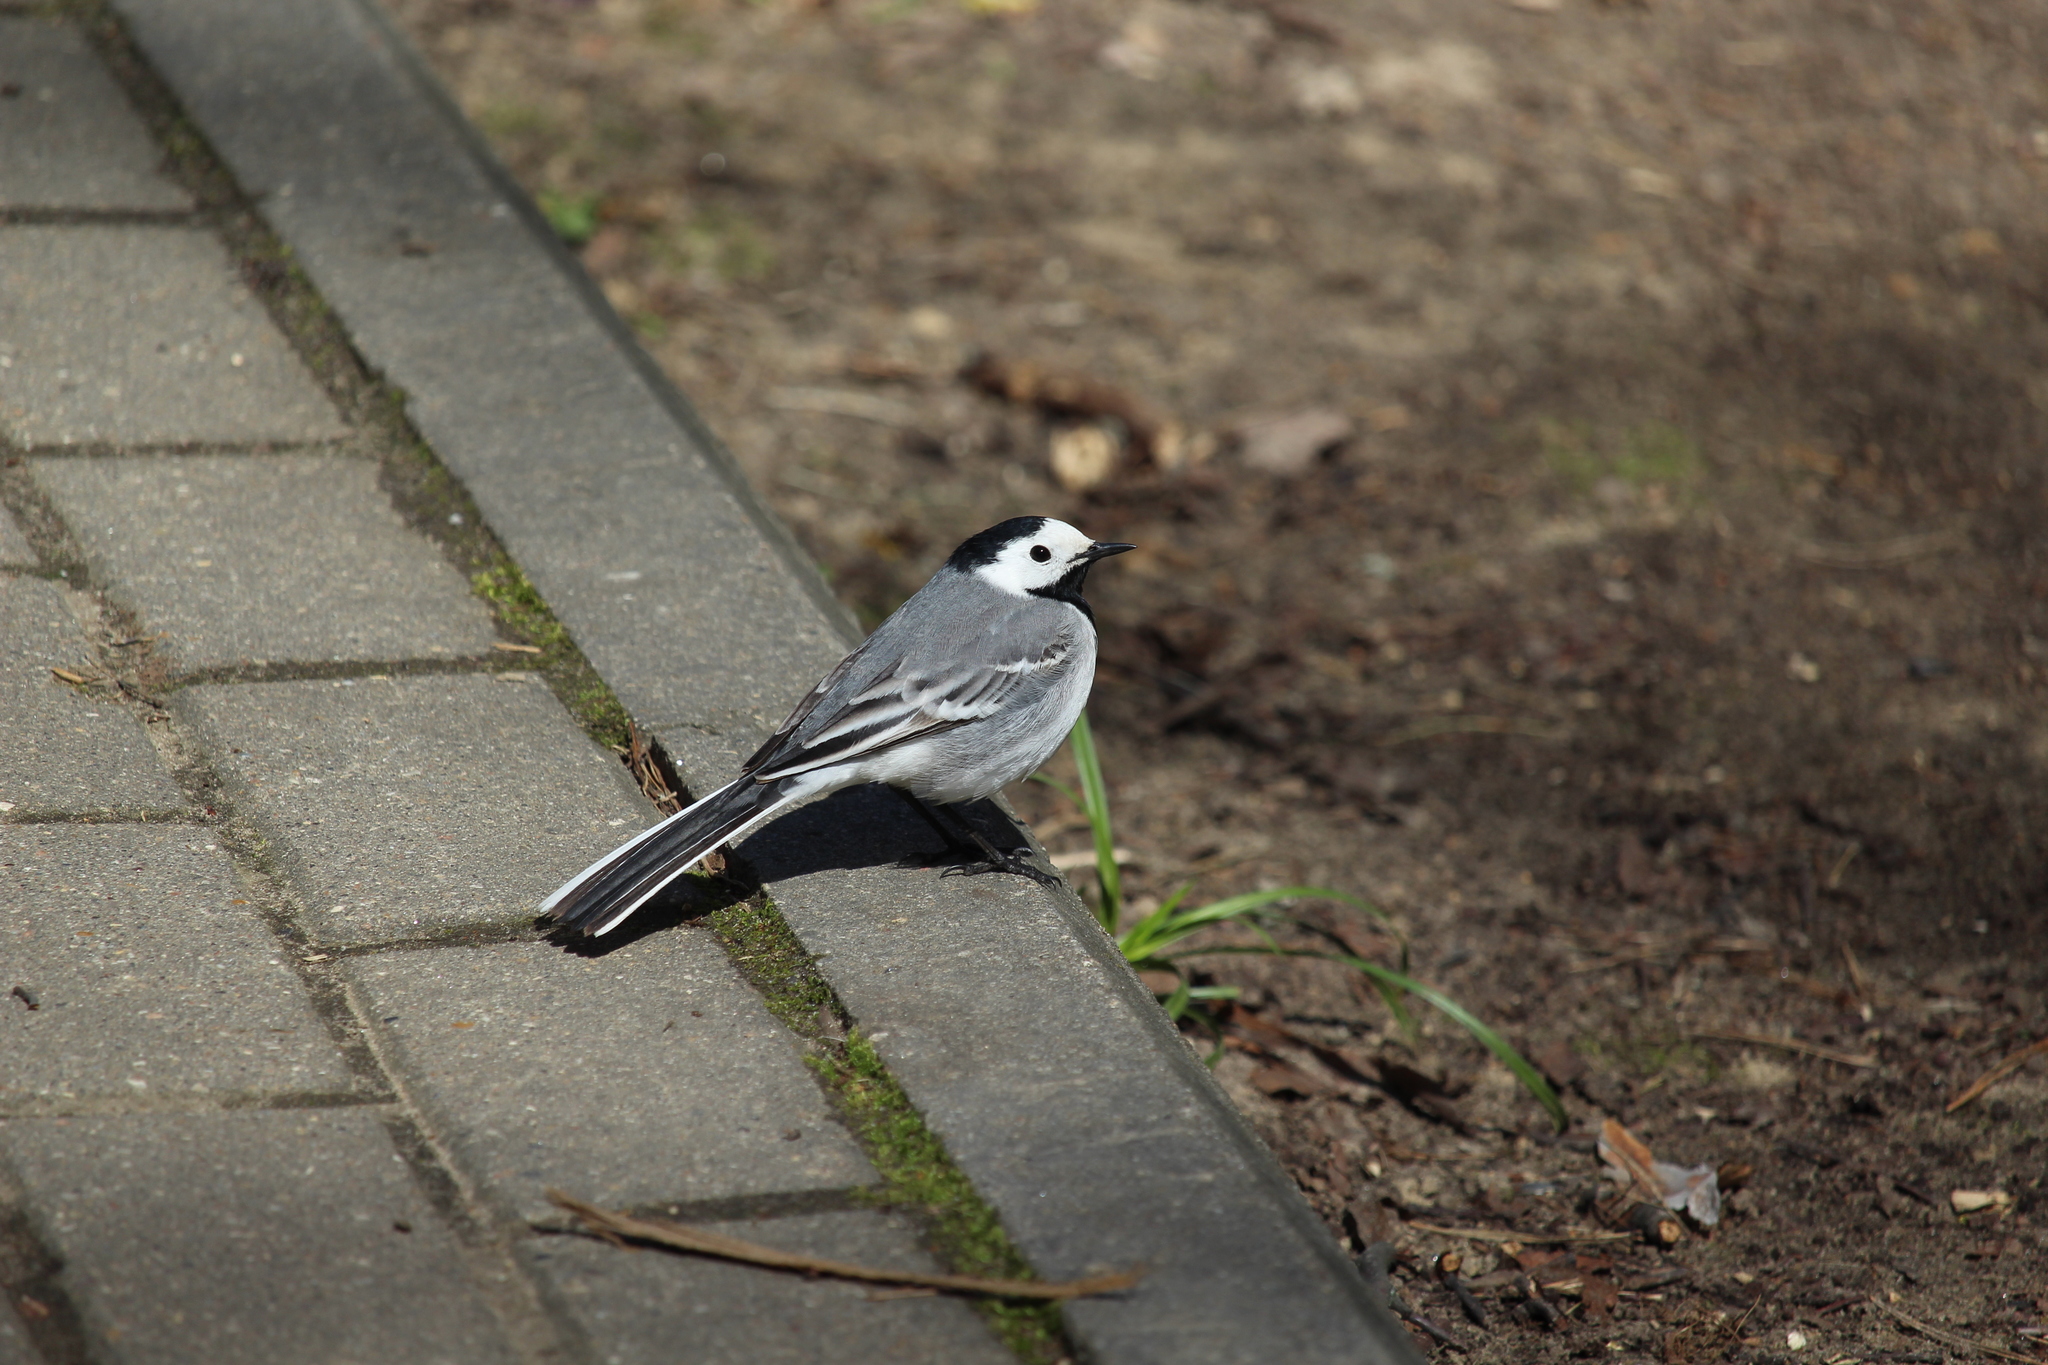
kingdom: Animalia
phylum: Chordata
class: Aves
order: Passeriformes
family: Motacillidae
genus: Motacilla
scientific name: Motacilla alba
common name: White wagtail
